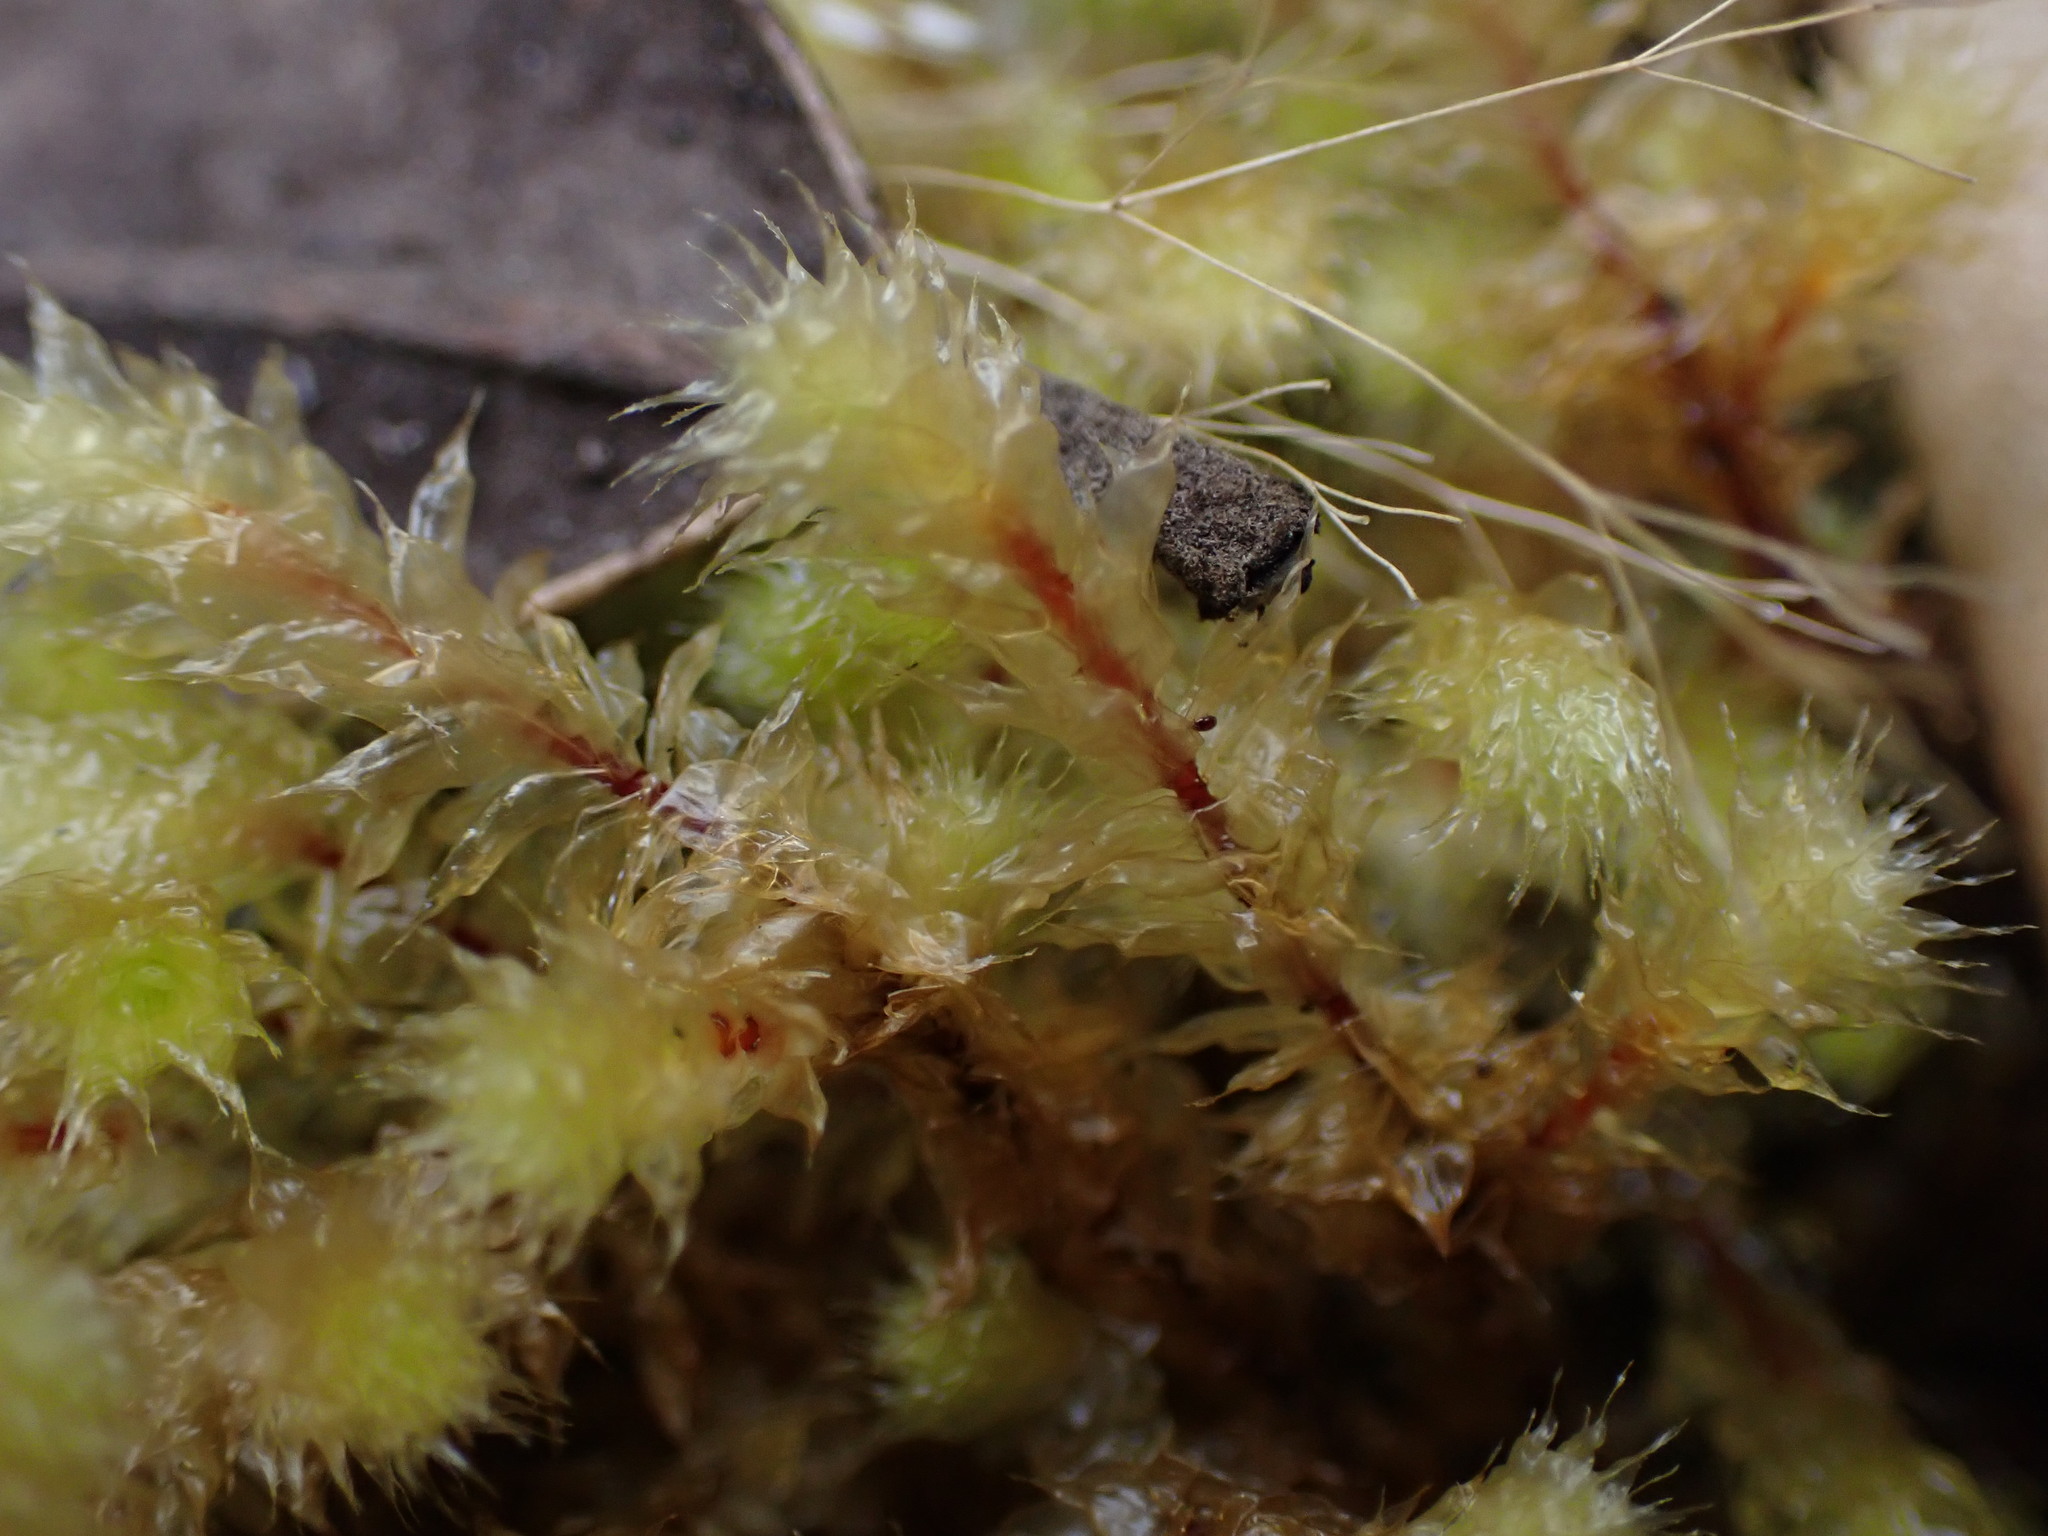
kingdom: Plantae
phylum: Bryophyta
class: Bryopsida
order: Ptychomniales
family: Ptychomniaceae
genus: Ptychomnion
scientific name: Ptychomnion aciculare
